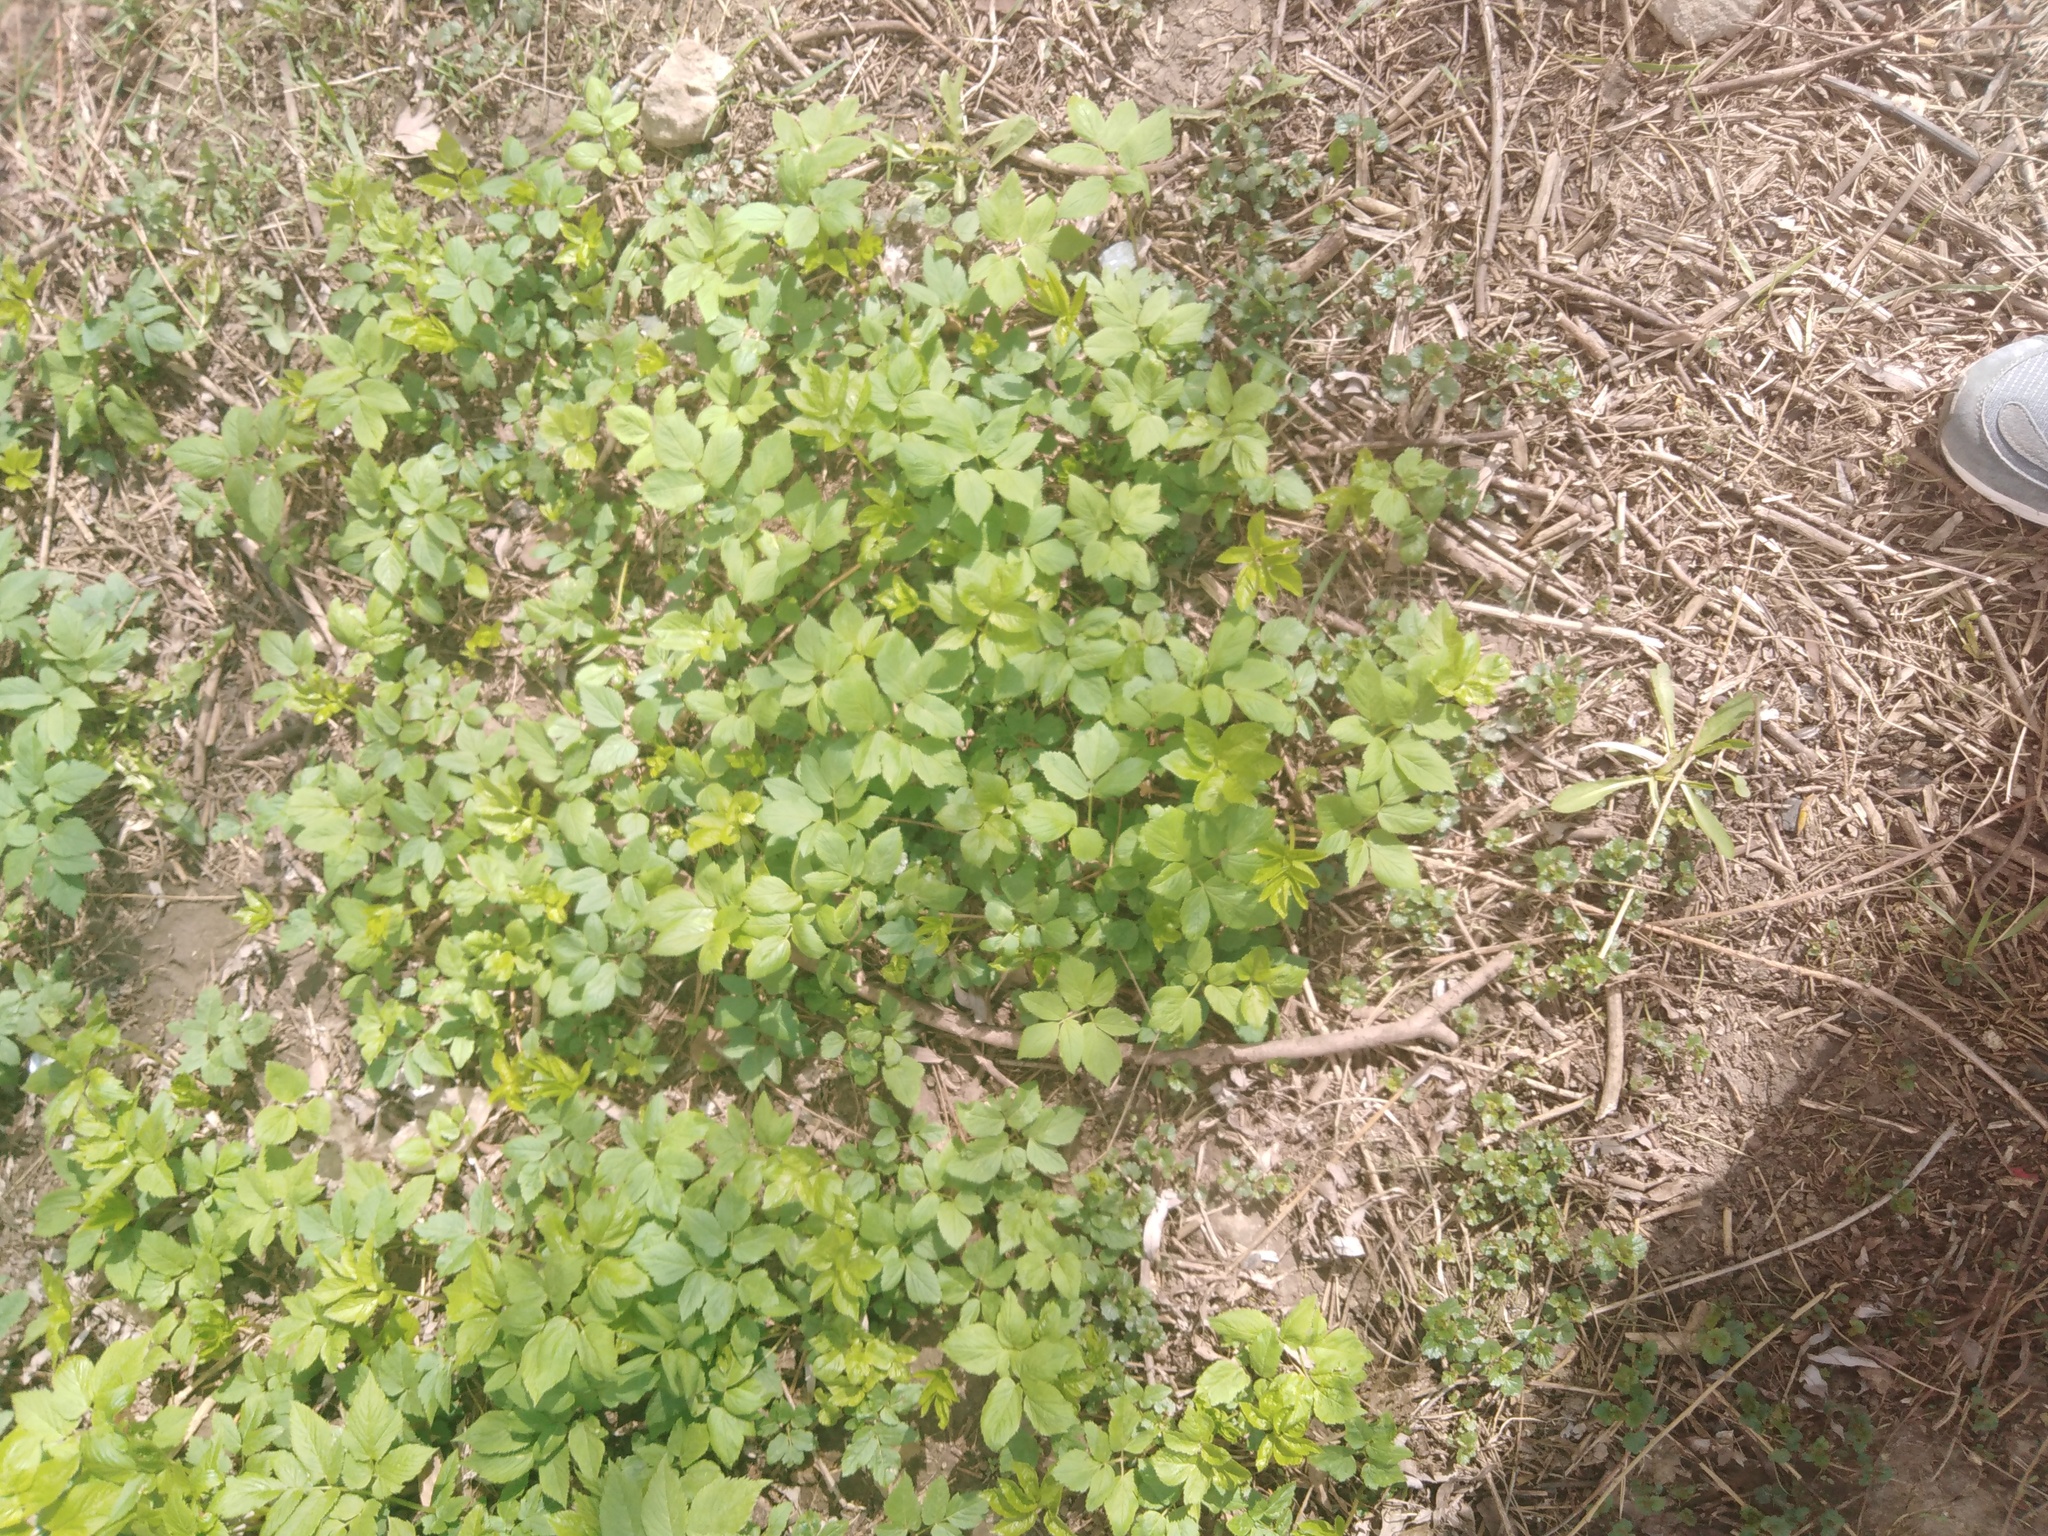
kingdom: Plantae
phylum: Tracheophyta
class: Magnoliopsida
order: Apiales
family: Apiaceae
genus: Aegopodium
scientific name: Aegopodium podagraria
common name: Ground-elder
